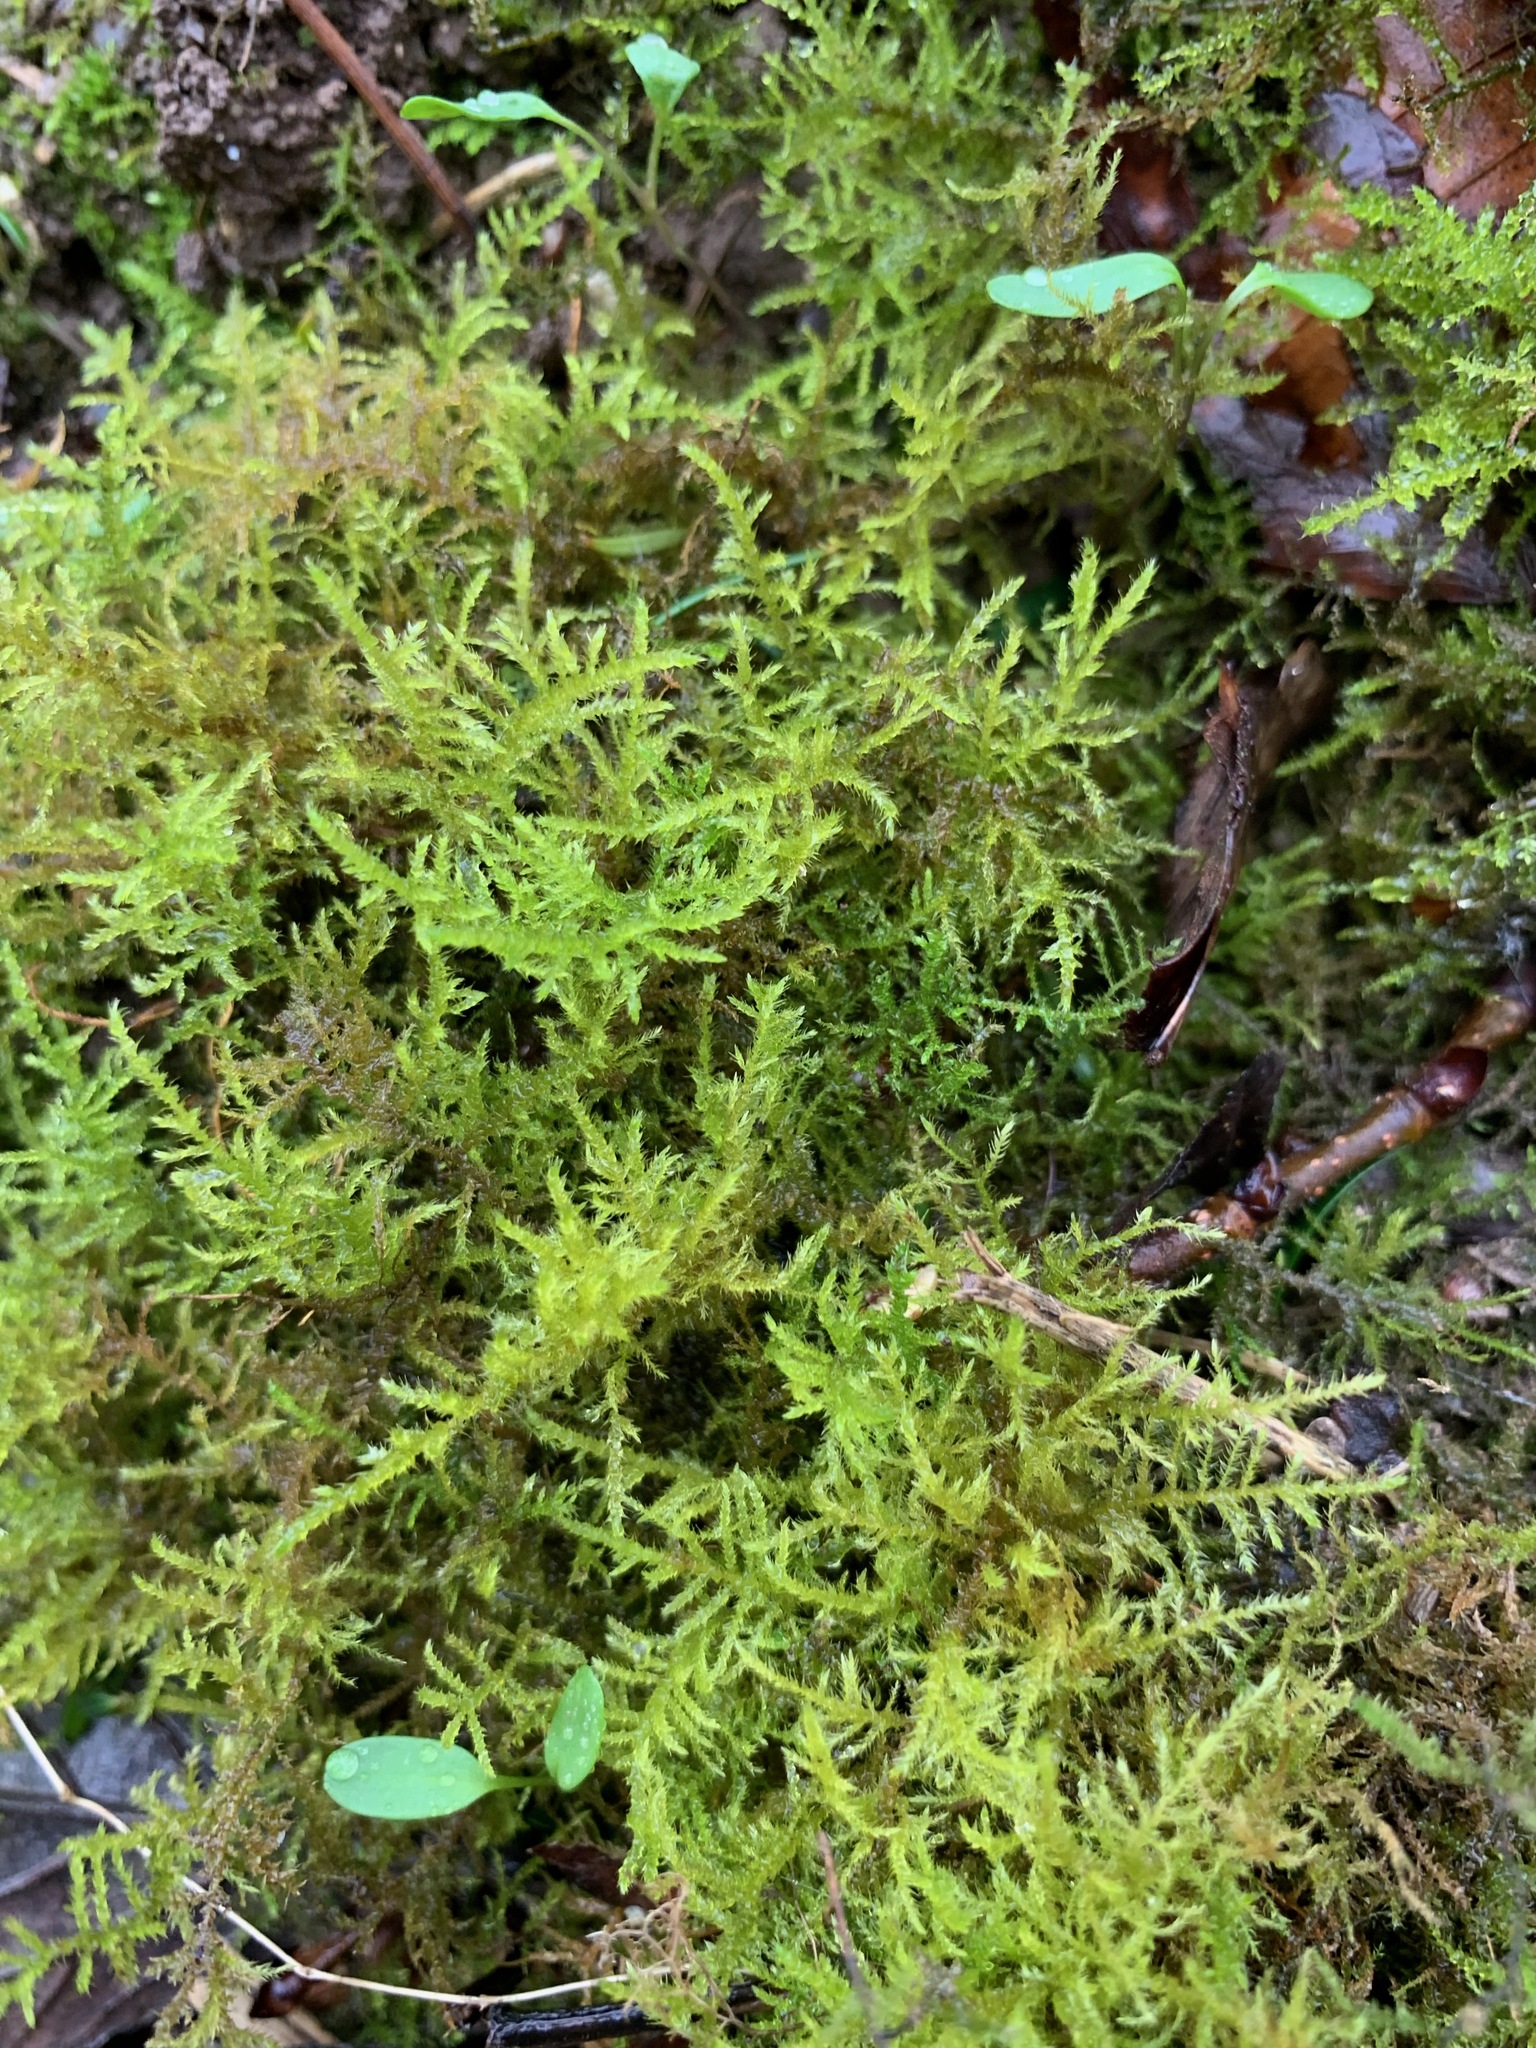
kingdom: Plantae
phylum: Bryophyta
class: Bryopsida
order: Hypnales
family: Brachytheciaceae
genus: Kindbergia
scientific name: Kindbergia praelonga
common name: Slender beaked moss
